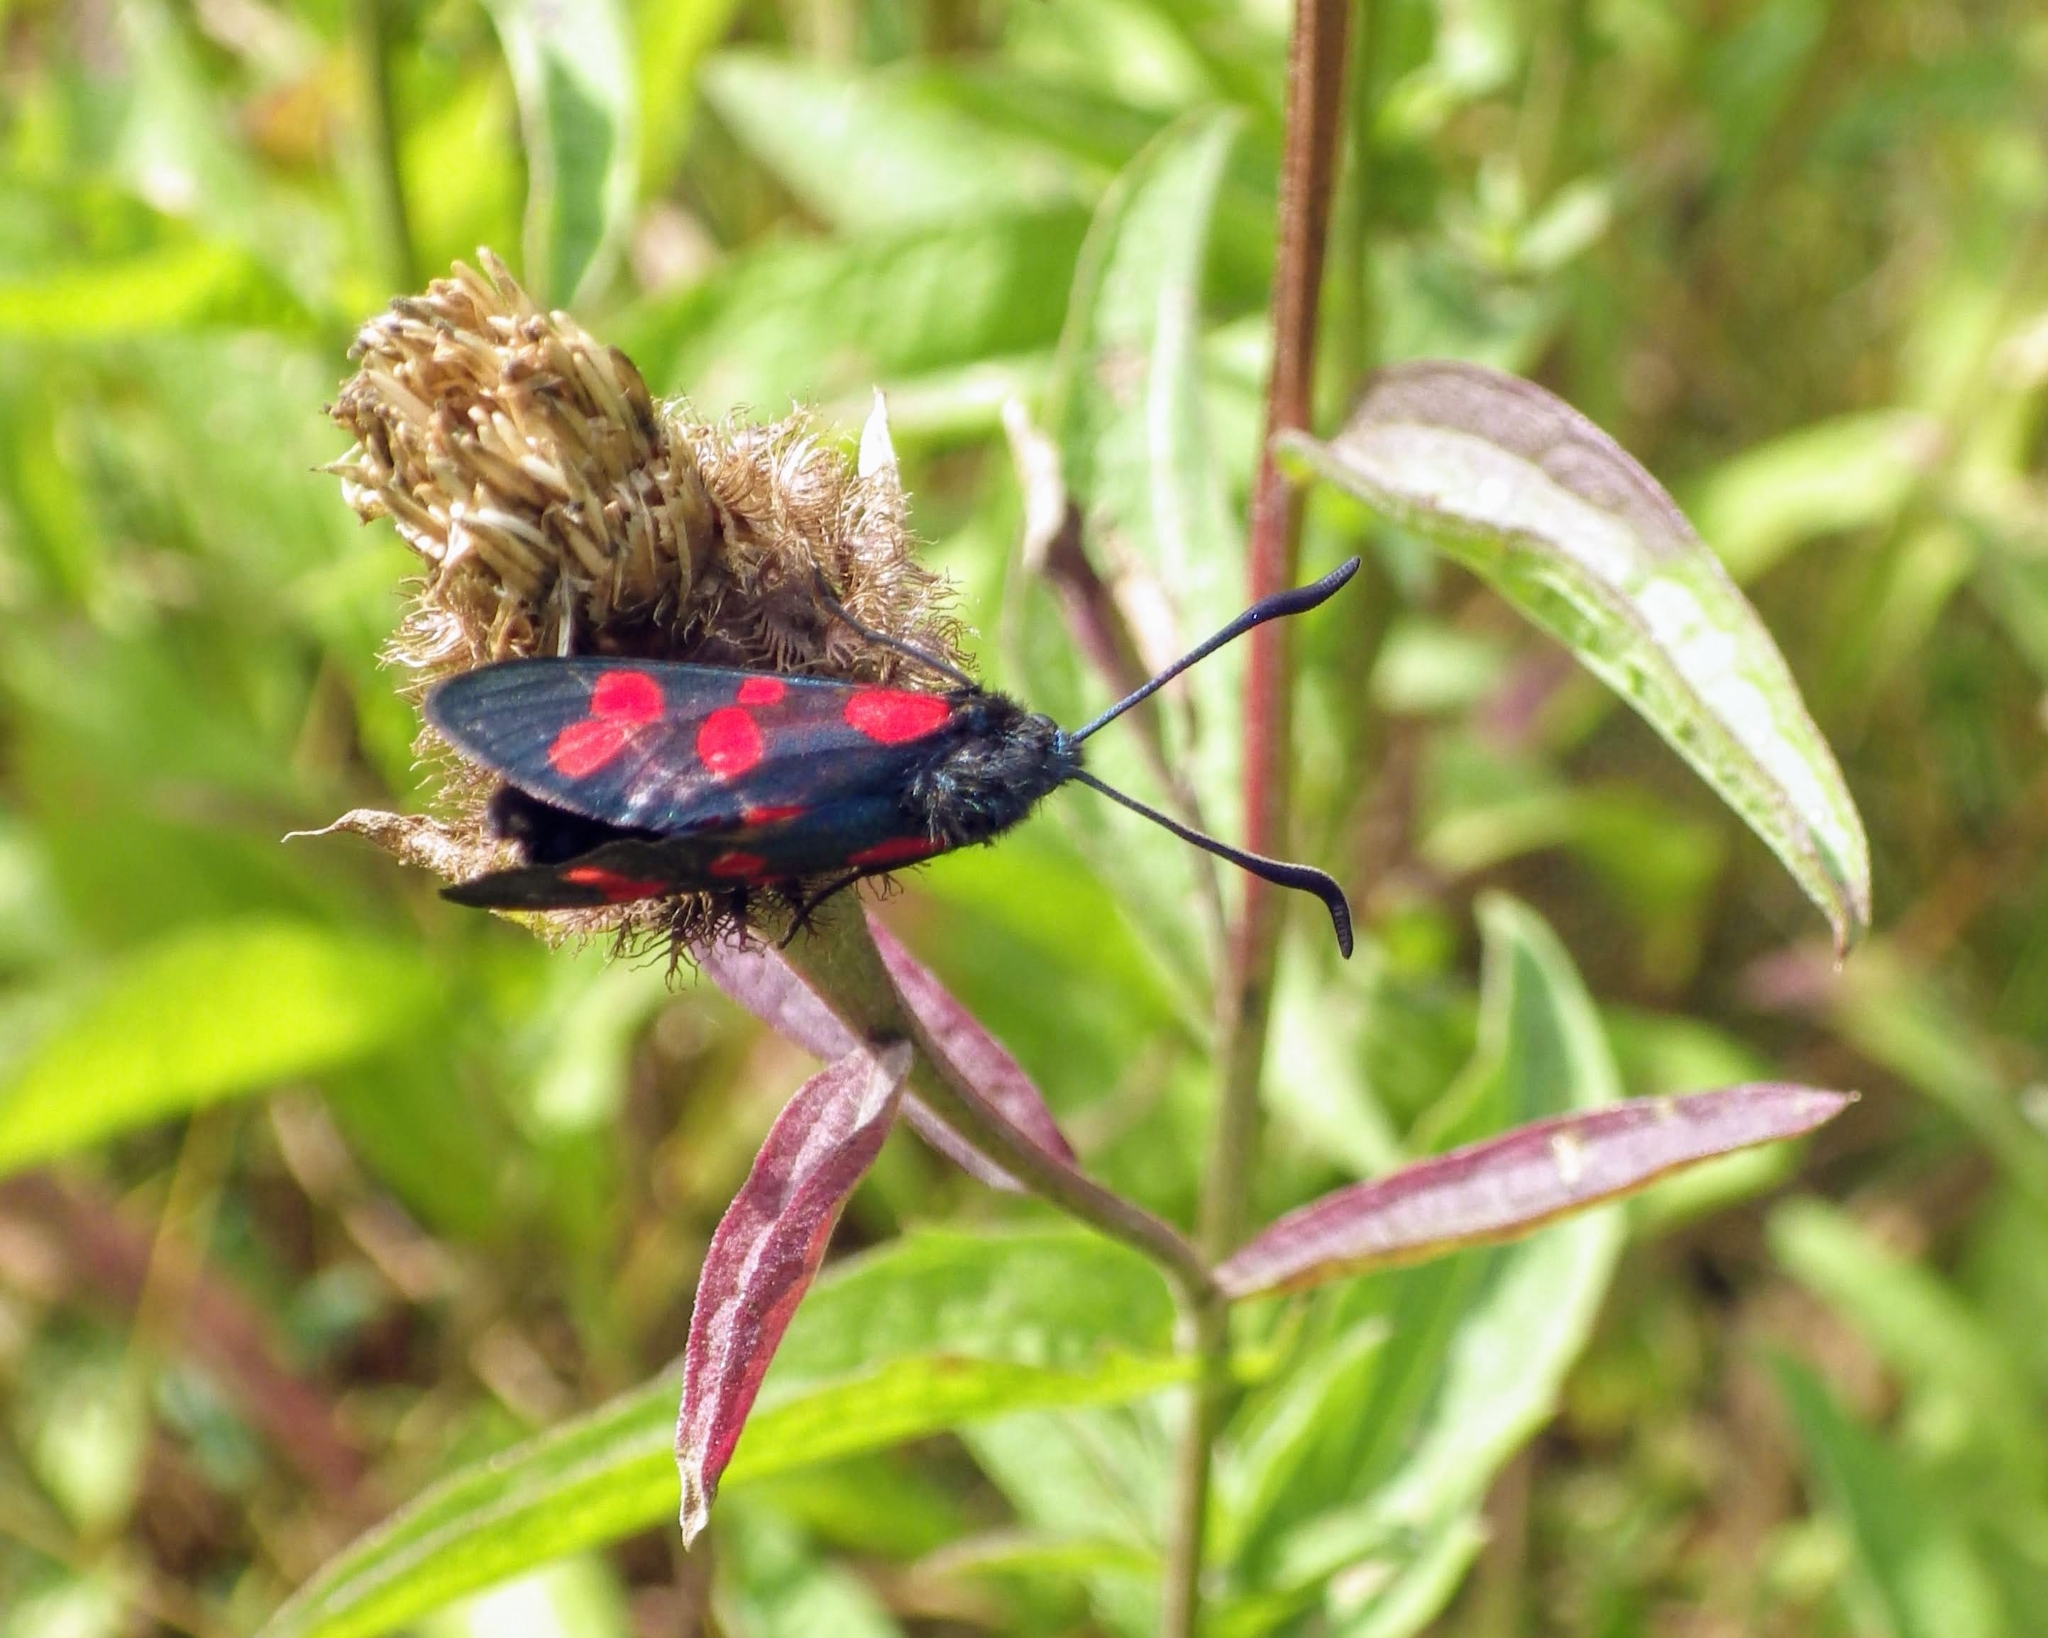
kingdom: Animalia
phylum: Arthropoda
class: Insecta
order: Lepidoptera
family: Zygaenidae
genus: Zygaena
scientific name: Zygaena filipendulae
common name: Six-spot burnet
